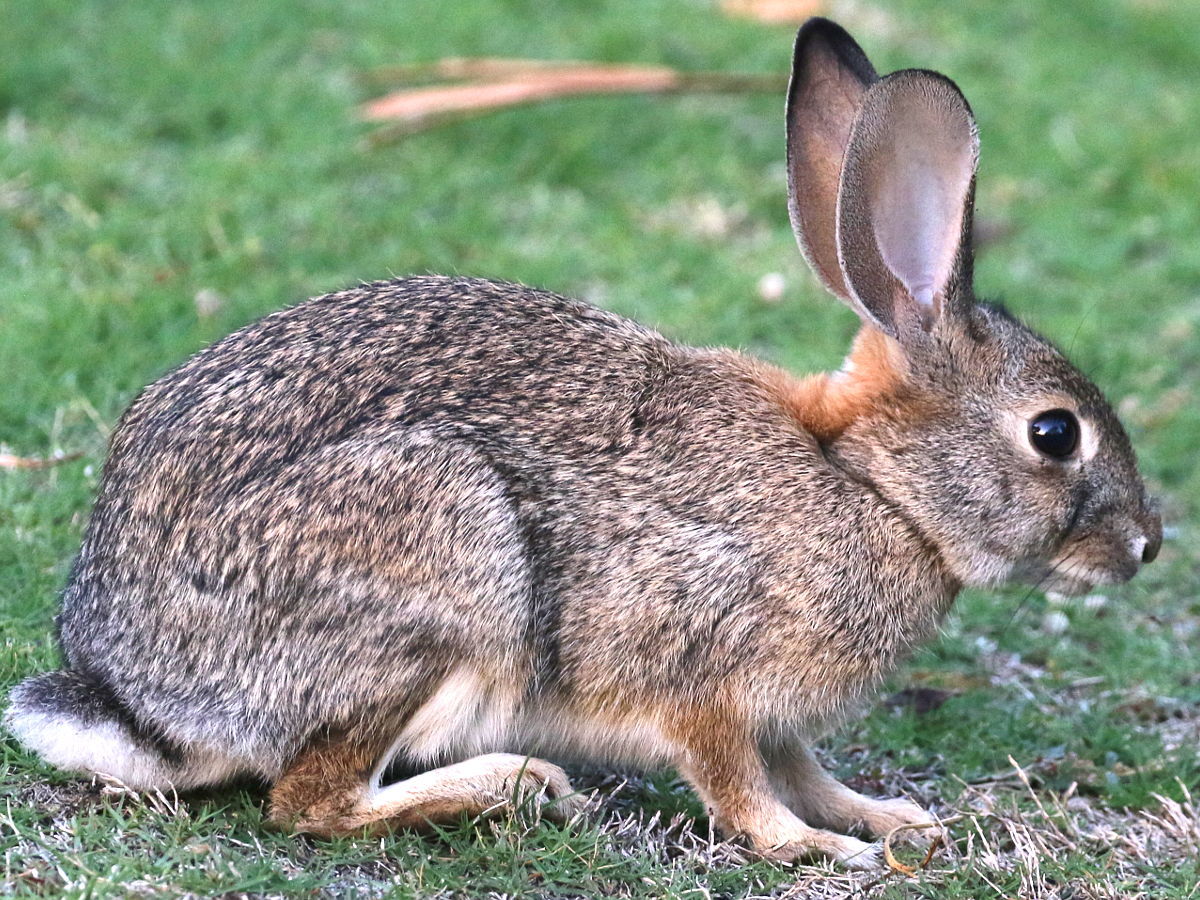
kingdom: Animalia
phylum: Chordata
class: Mammalia
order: Lagomorpha
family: Leporidae
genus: Sylvilagus
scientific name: Sylvilagus audubonii
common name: Desert cottontail
